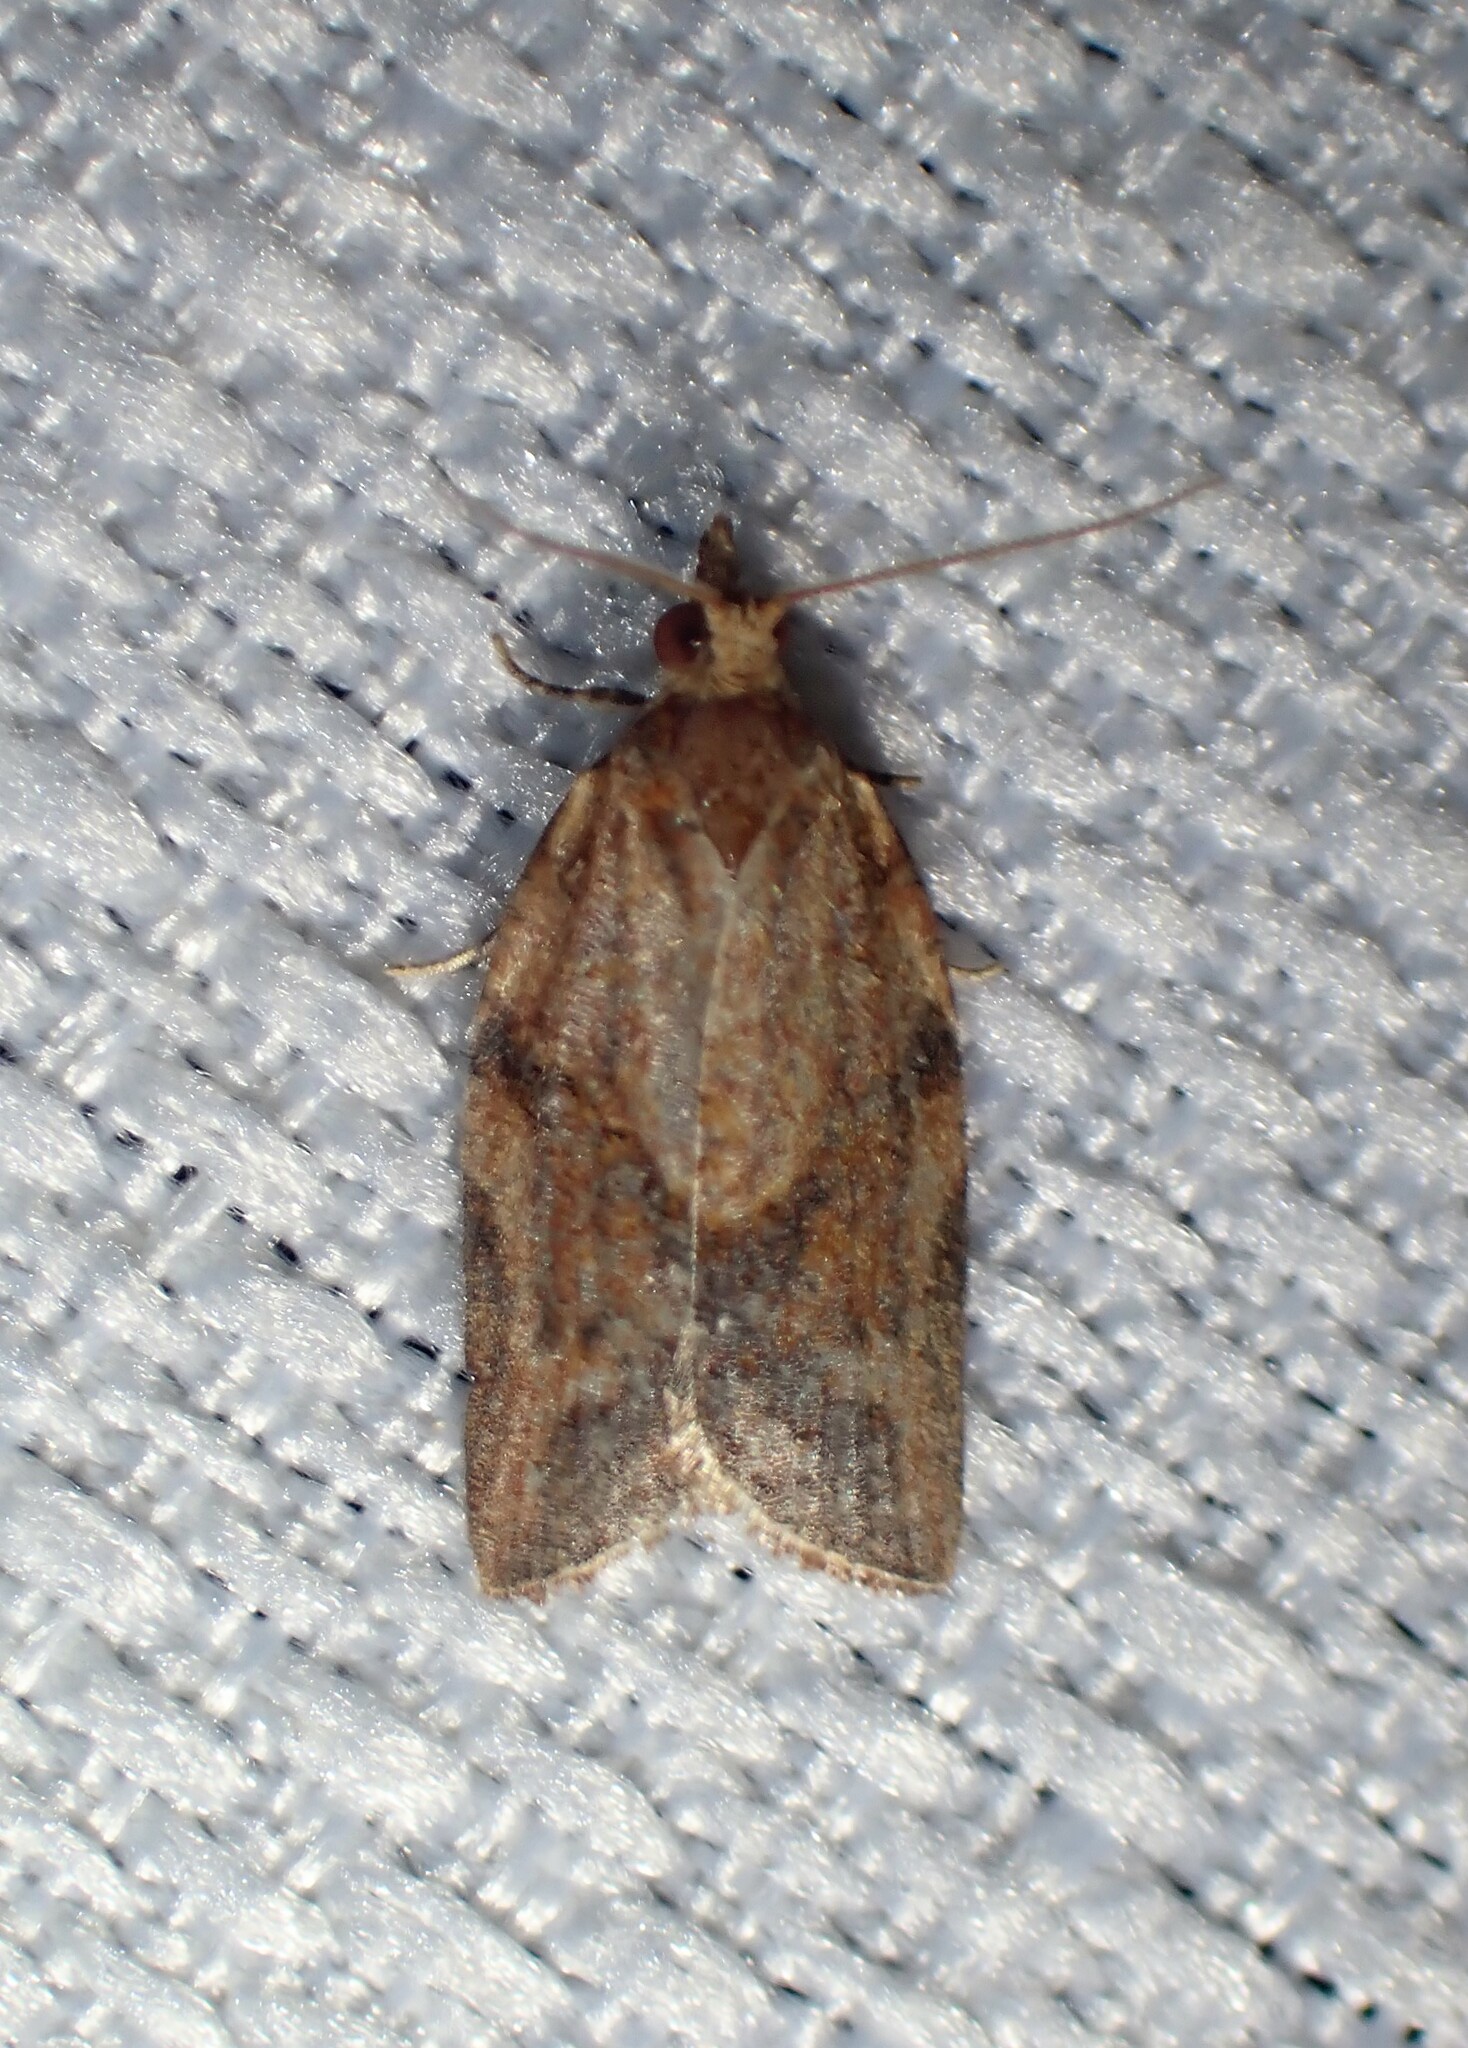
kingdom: Animalia
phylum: Arthropoda
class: Insecta
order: Lepidoptera
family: Tortricidae
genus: Epiphyas
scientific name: Epiphyas postvittana
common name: Light brown apple moth
